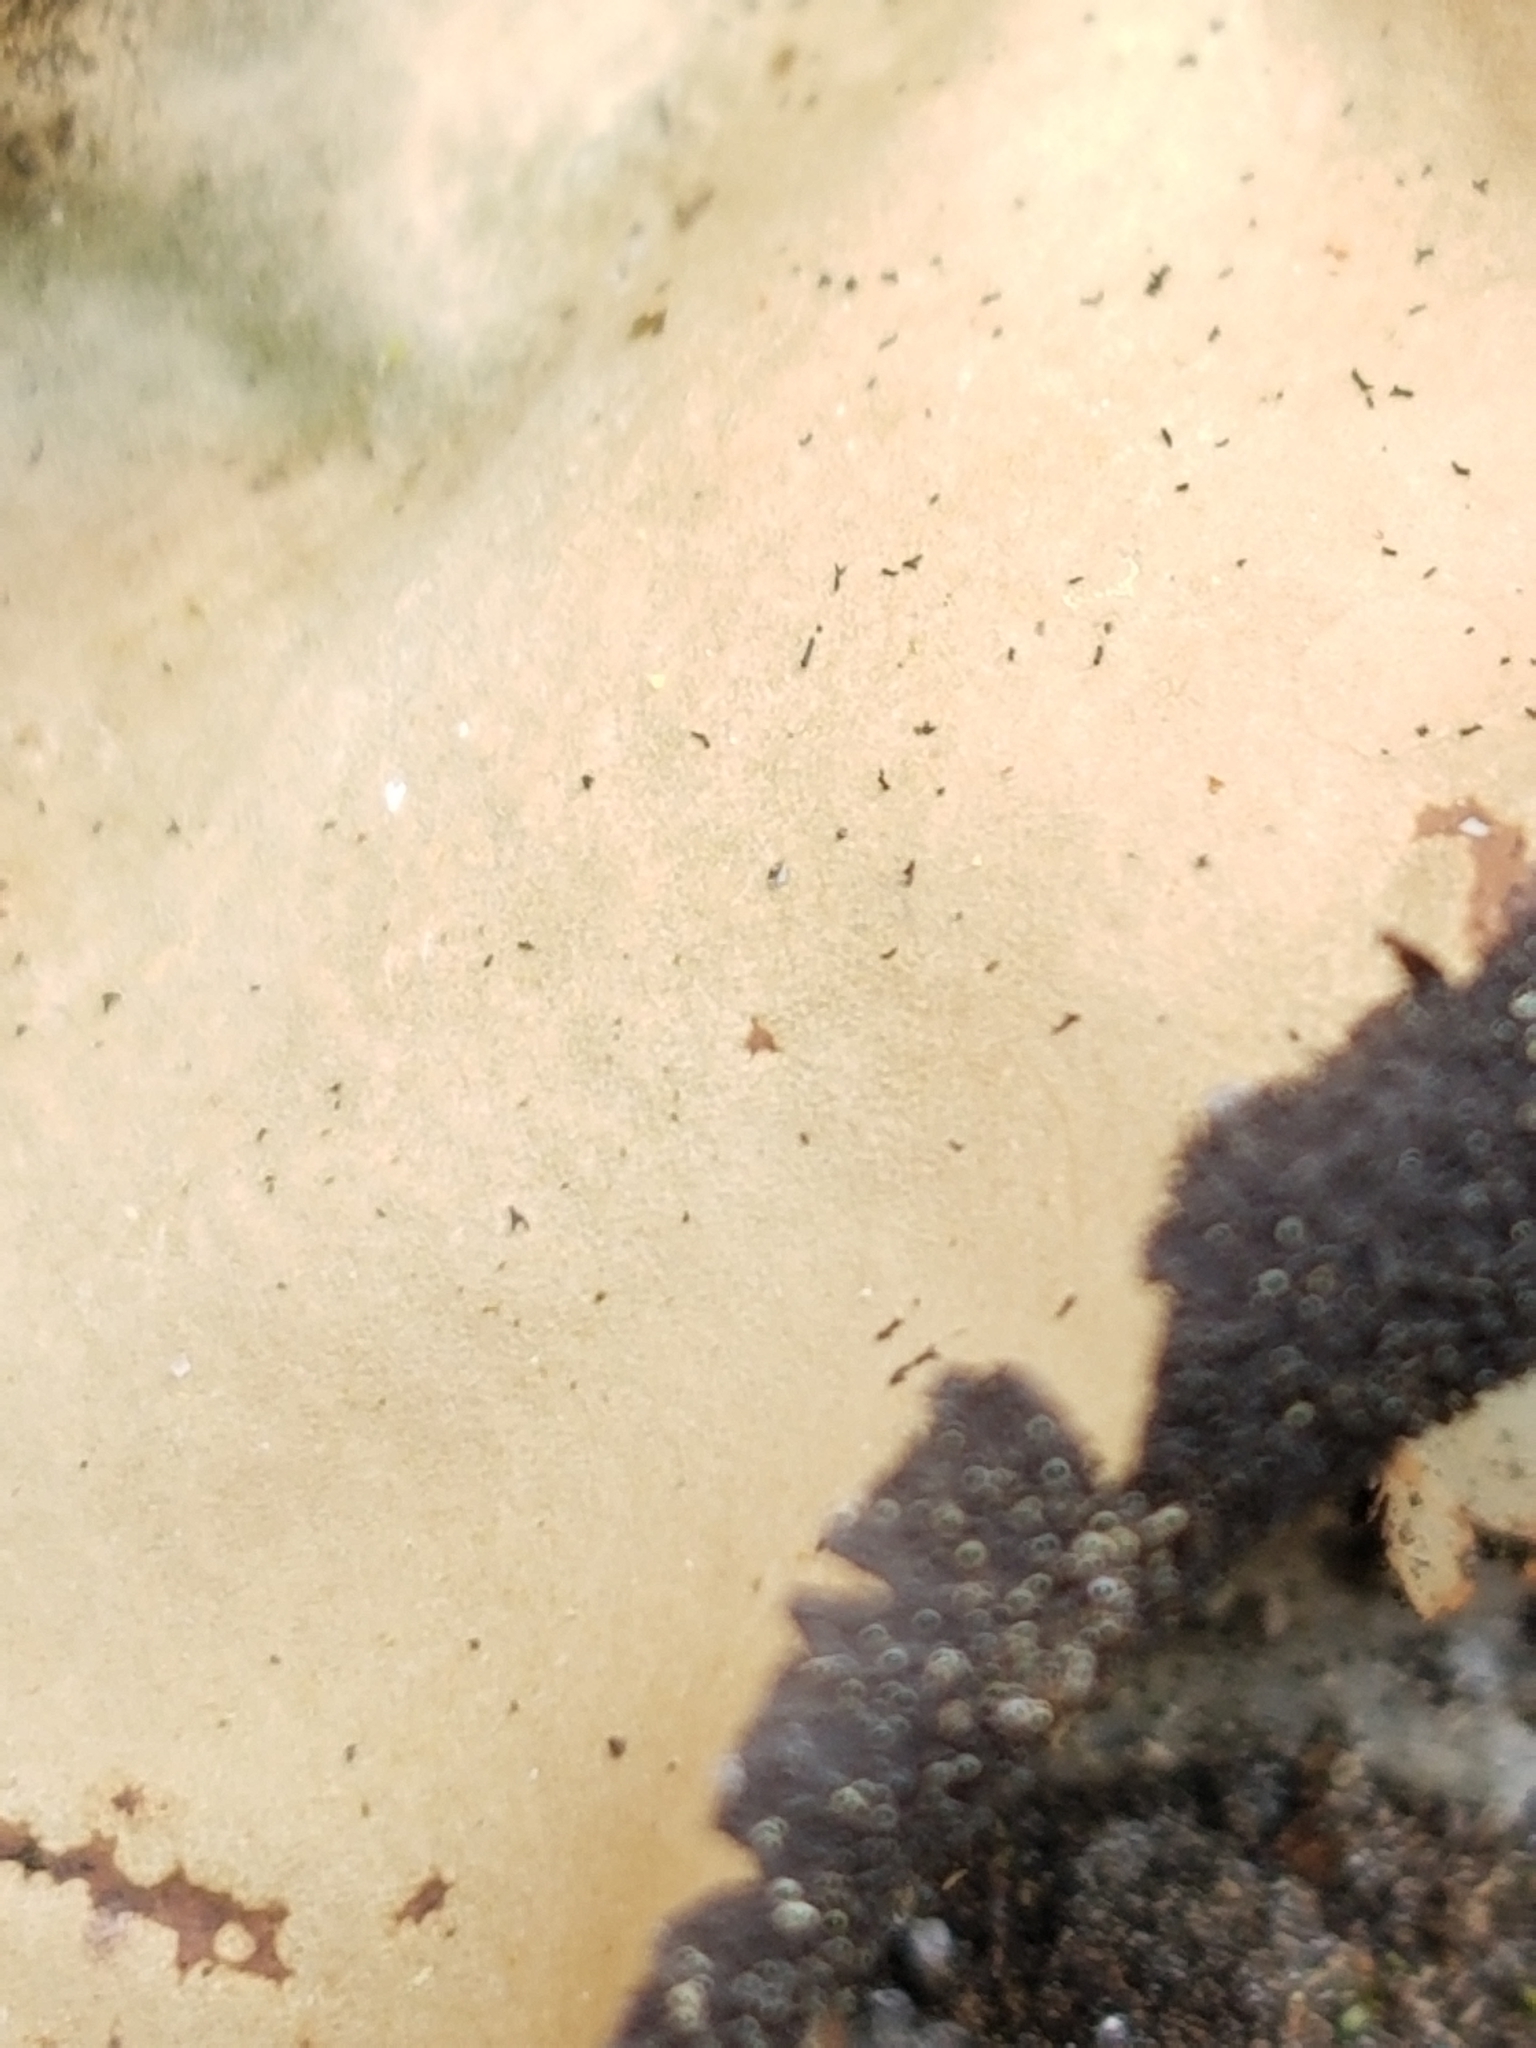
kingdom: Fungi
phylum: Ascomycota
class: Lecanoromycetes
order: Umbilicariales
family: Umbilicariaceae
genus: Umbilicaria
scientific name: Umbilicaria mammulata
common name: Smooth rock tripe
